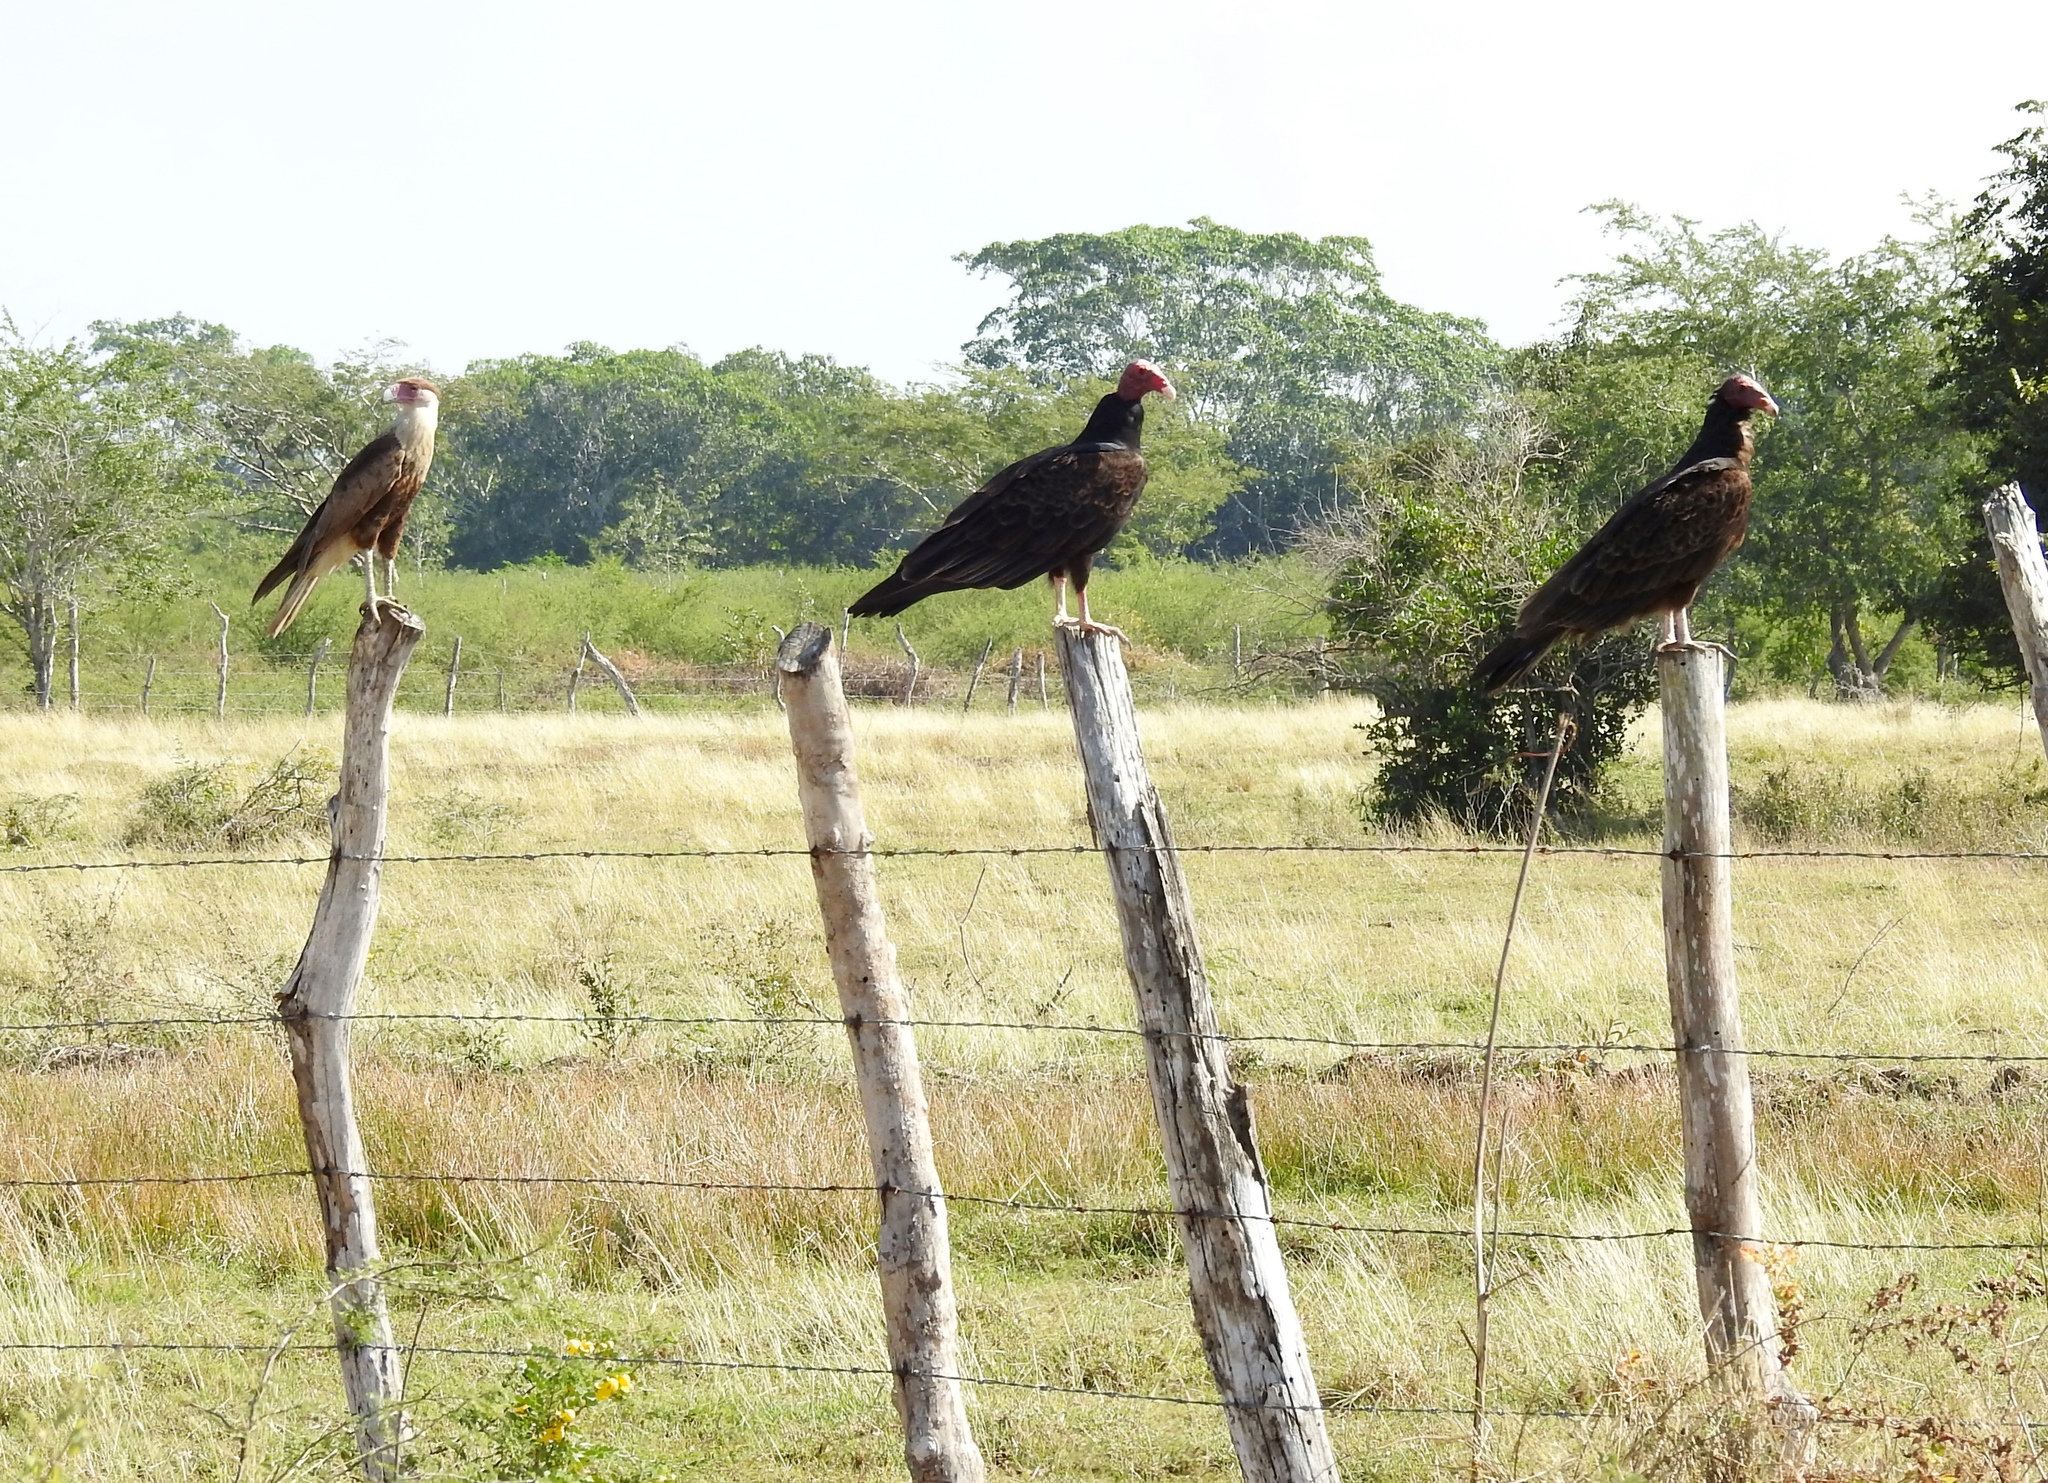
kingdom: Animalia
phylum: Chordata
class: Aves
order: Accipitriformes
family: Cathartidae
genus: Cathartes
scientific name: Cathartes aura
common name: Turkey vulture
